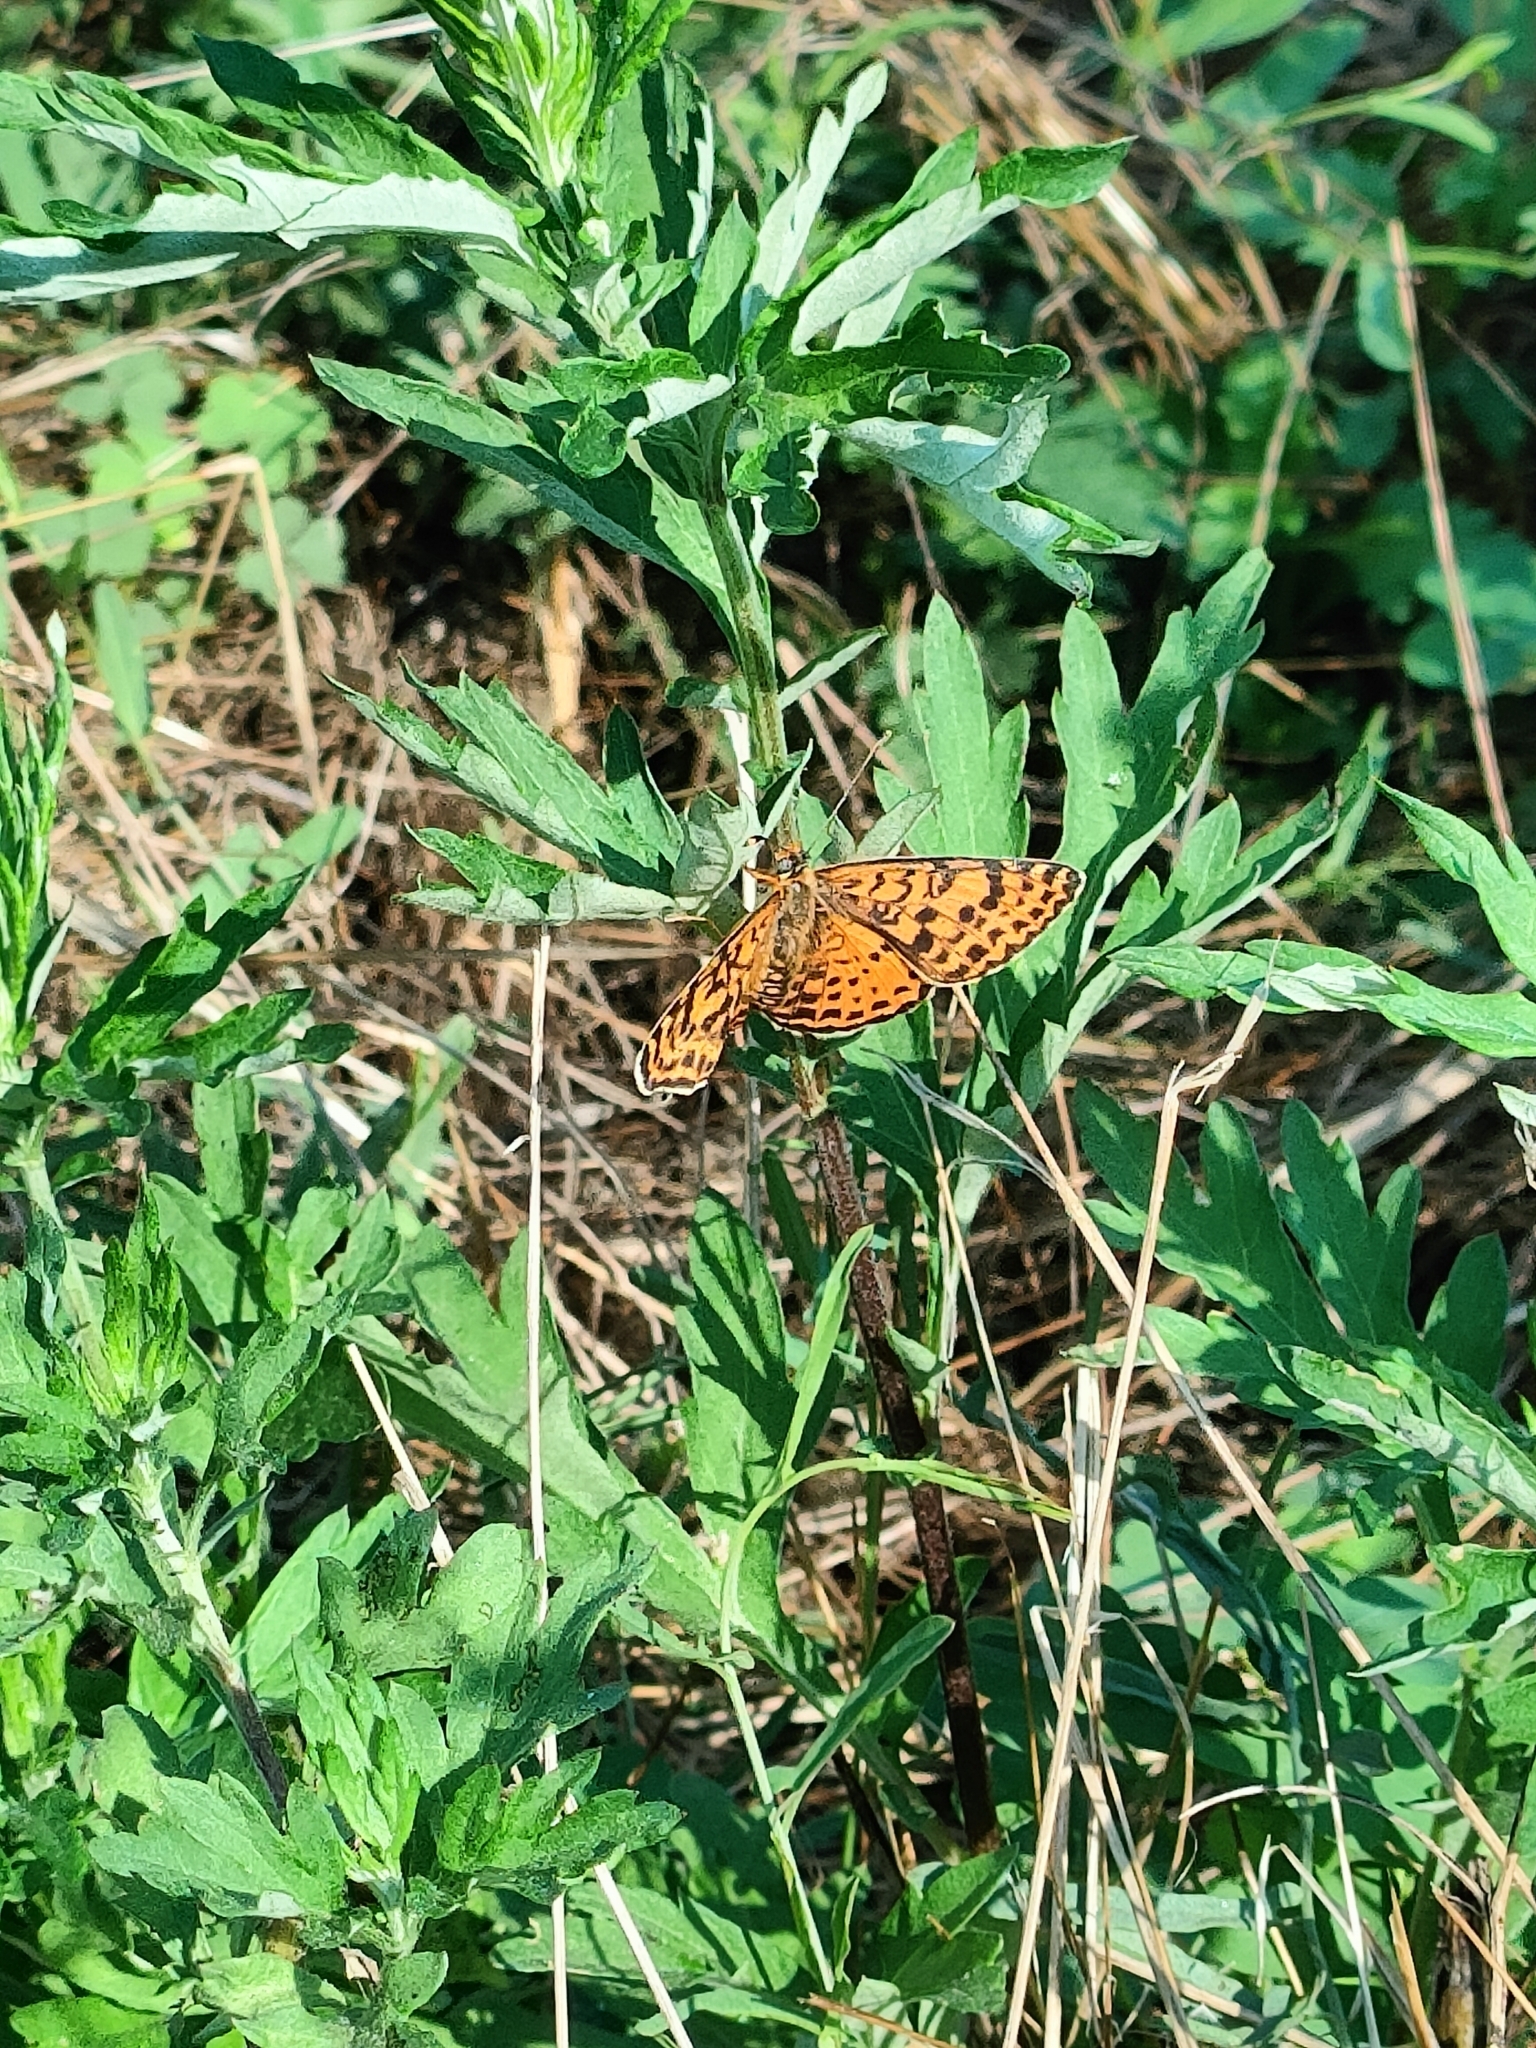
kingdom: Animalia
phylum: Arthropoda
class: Insecta
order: Lepidoptera
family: Nymphalidae
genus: Melitaea
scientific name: Melitaea didyma
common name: Spotted fritillary
